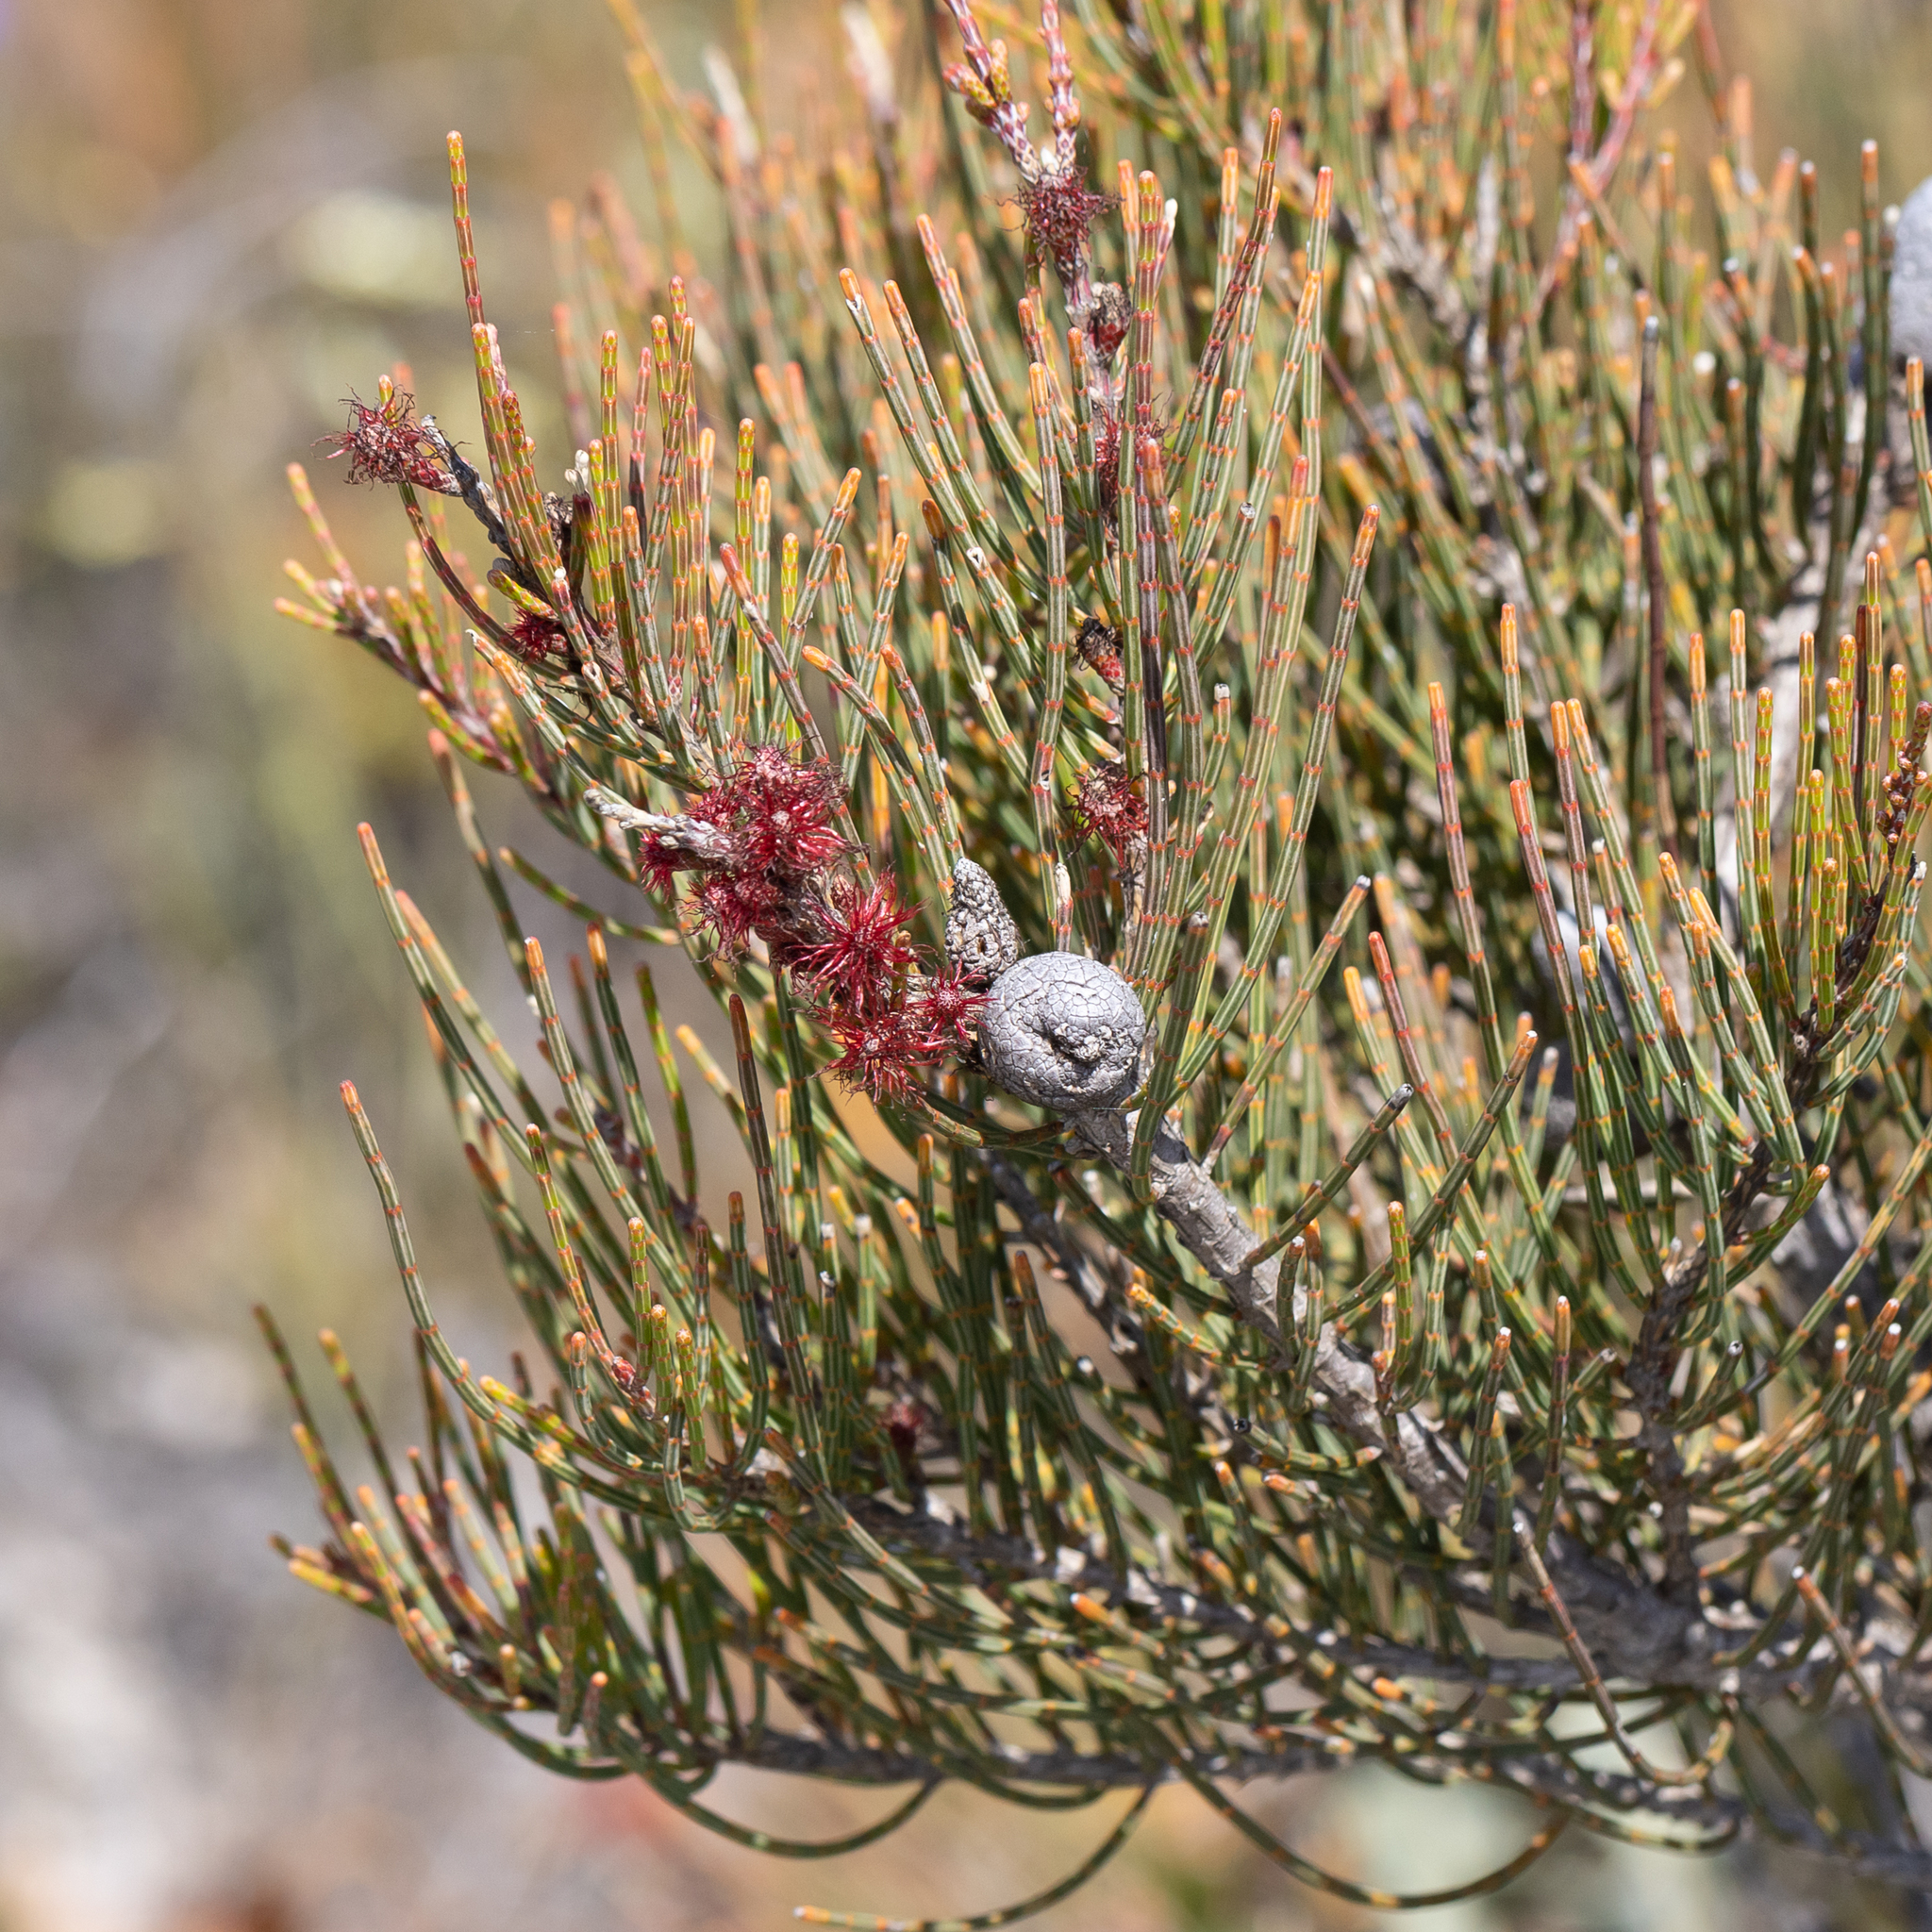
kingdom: Plantae
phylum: Tracheophyta
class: Magnoliopsida
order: Fagales
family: Casuarinaceae
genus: Allocasuarina
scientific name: Allocasuarina humilis
